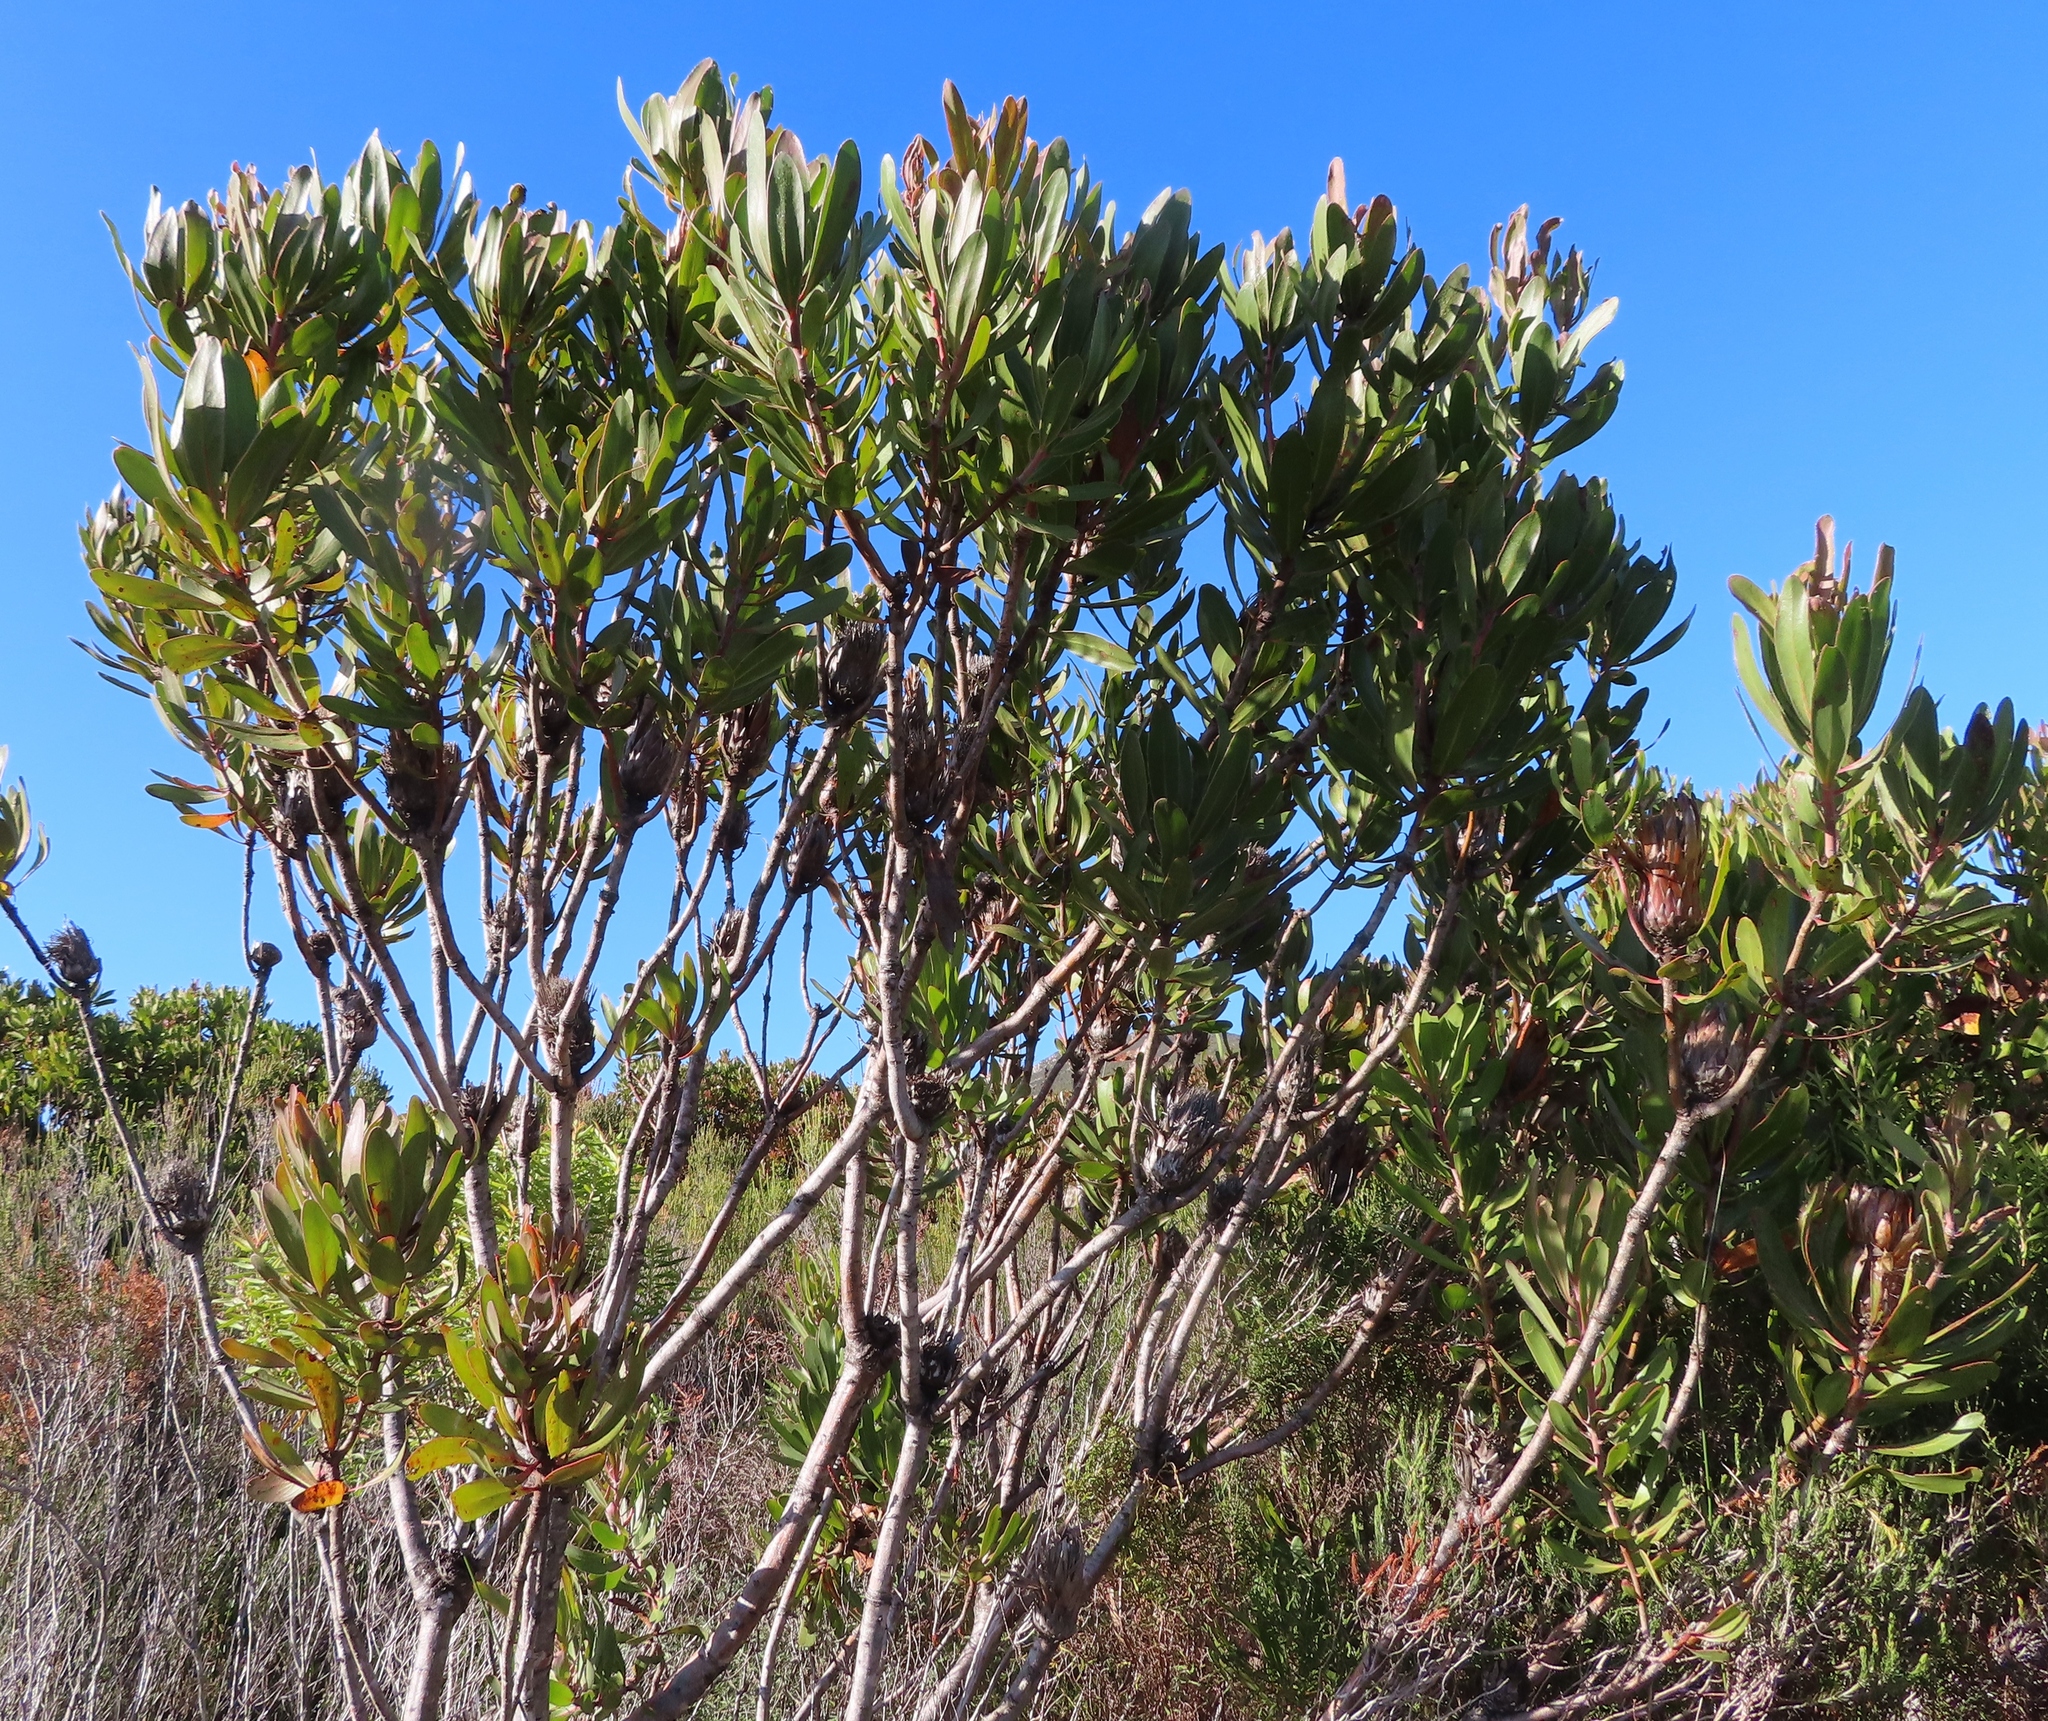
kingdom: Plantae
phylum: Tracheophyta
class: Magnoliopsida
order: Proteales
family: Proteaceae
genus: Protea
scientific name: Protea obtusifolia
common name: Bredasdorp sugarbush
